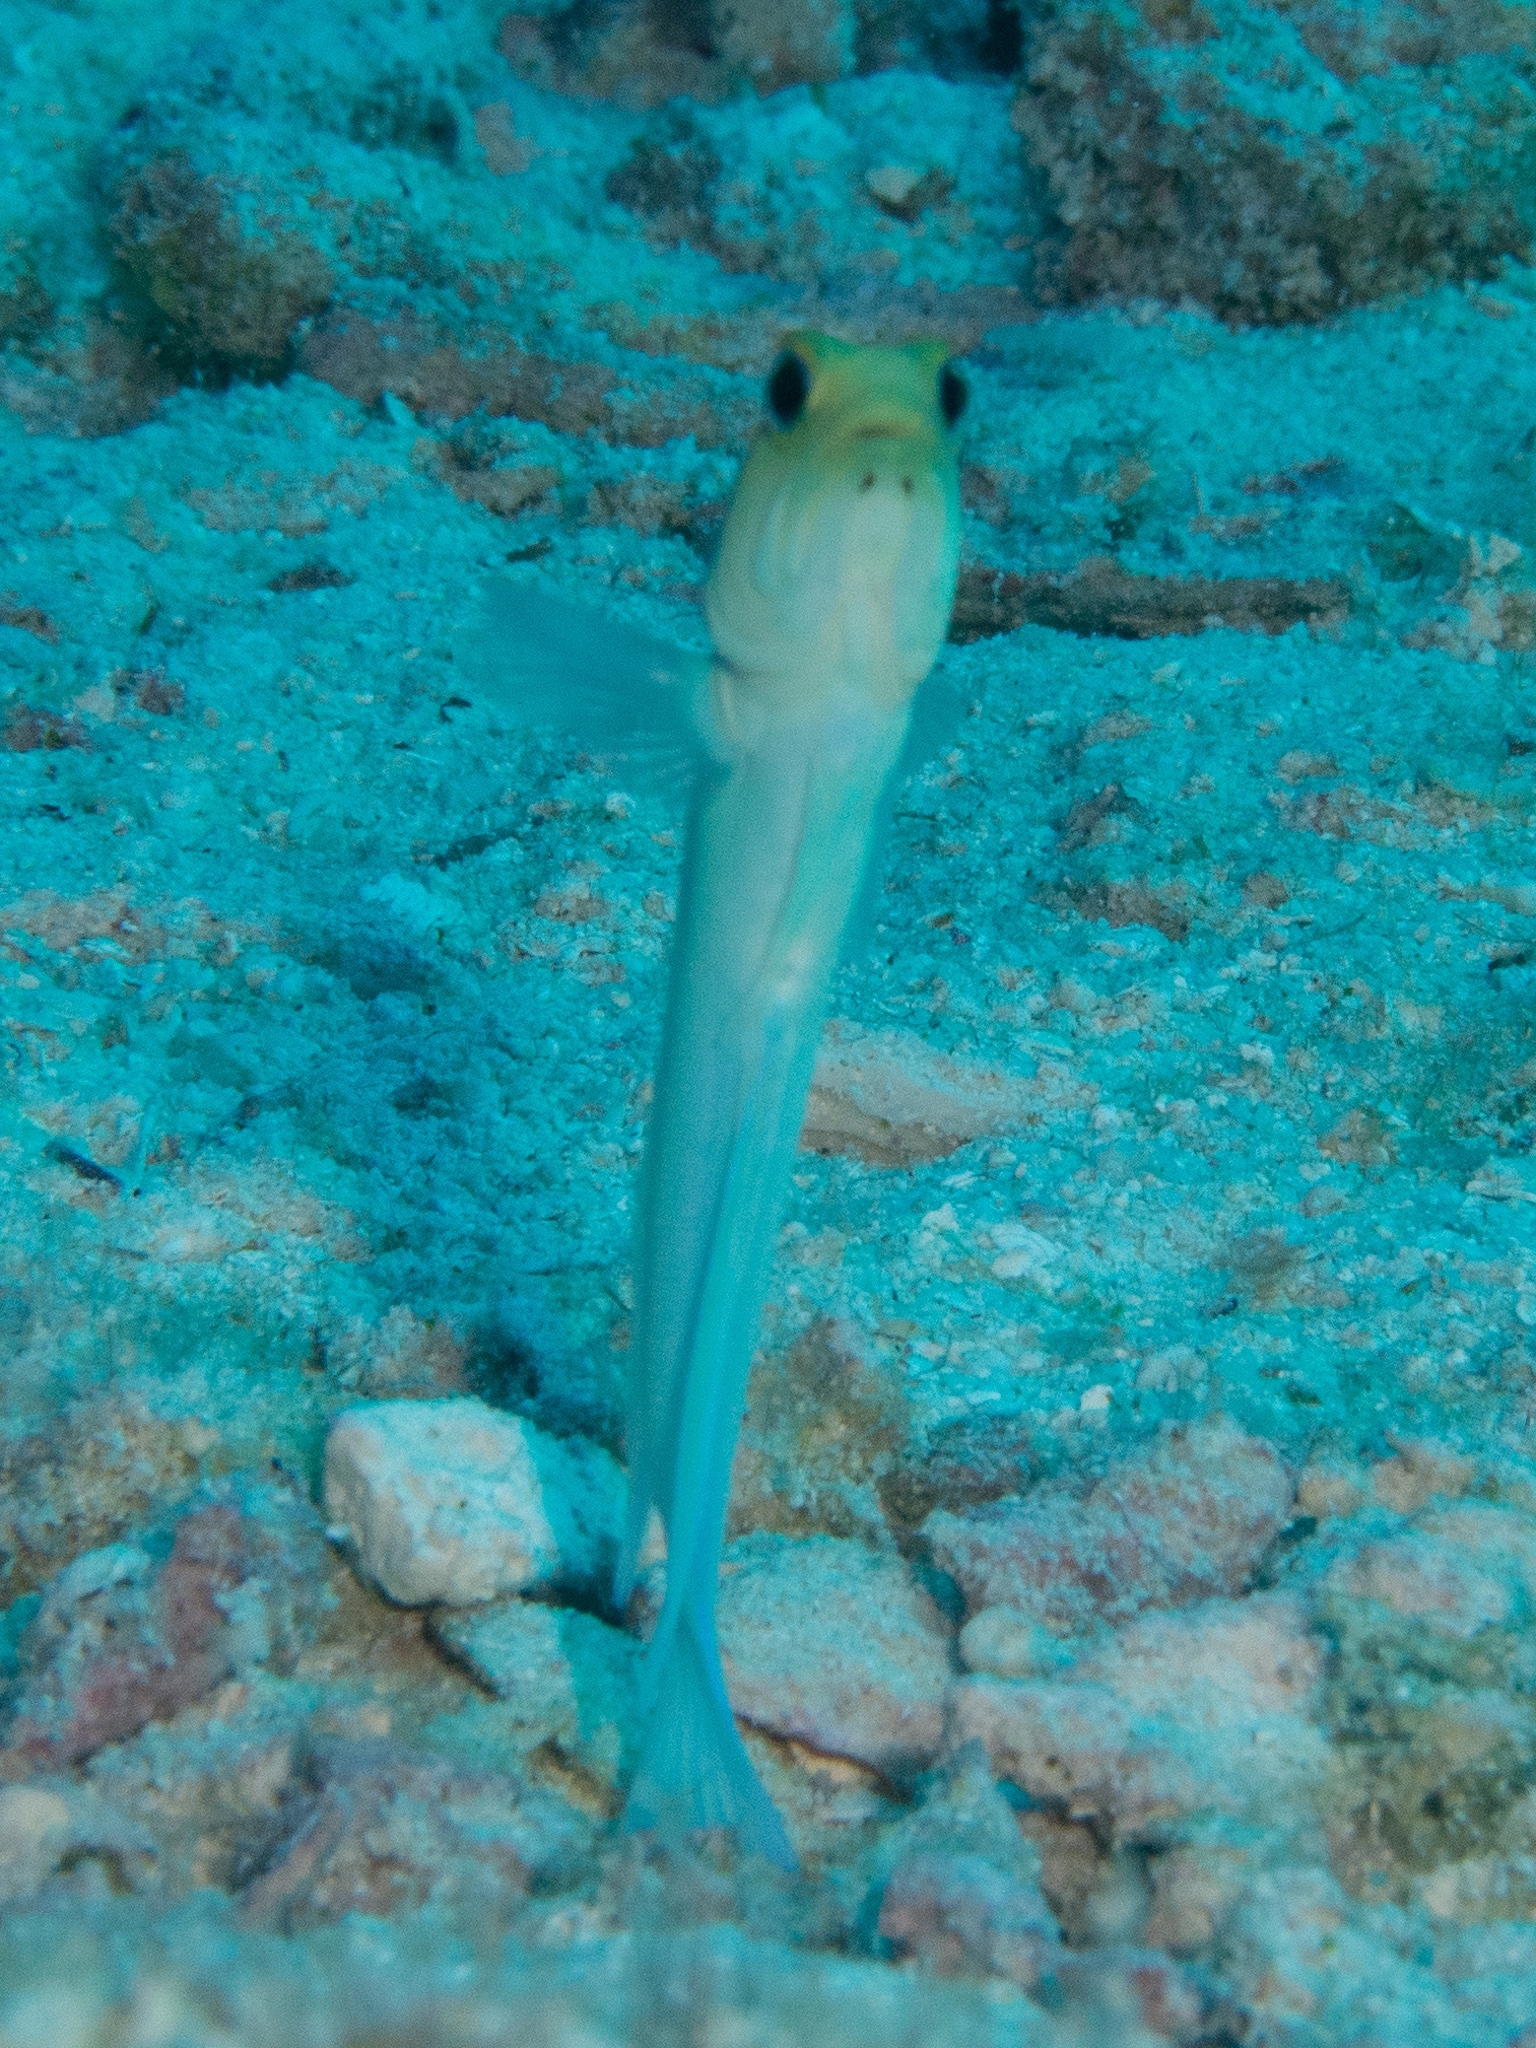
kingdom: Animalia
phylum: Chordata
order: Perciformes
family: Opistognathidae
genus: Opistognathus
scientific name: Opistognathus aurifrons
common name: Yellowhead jawfish
